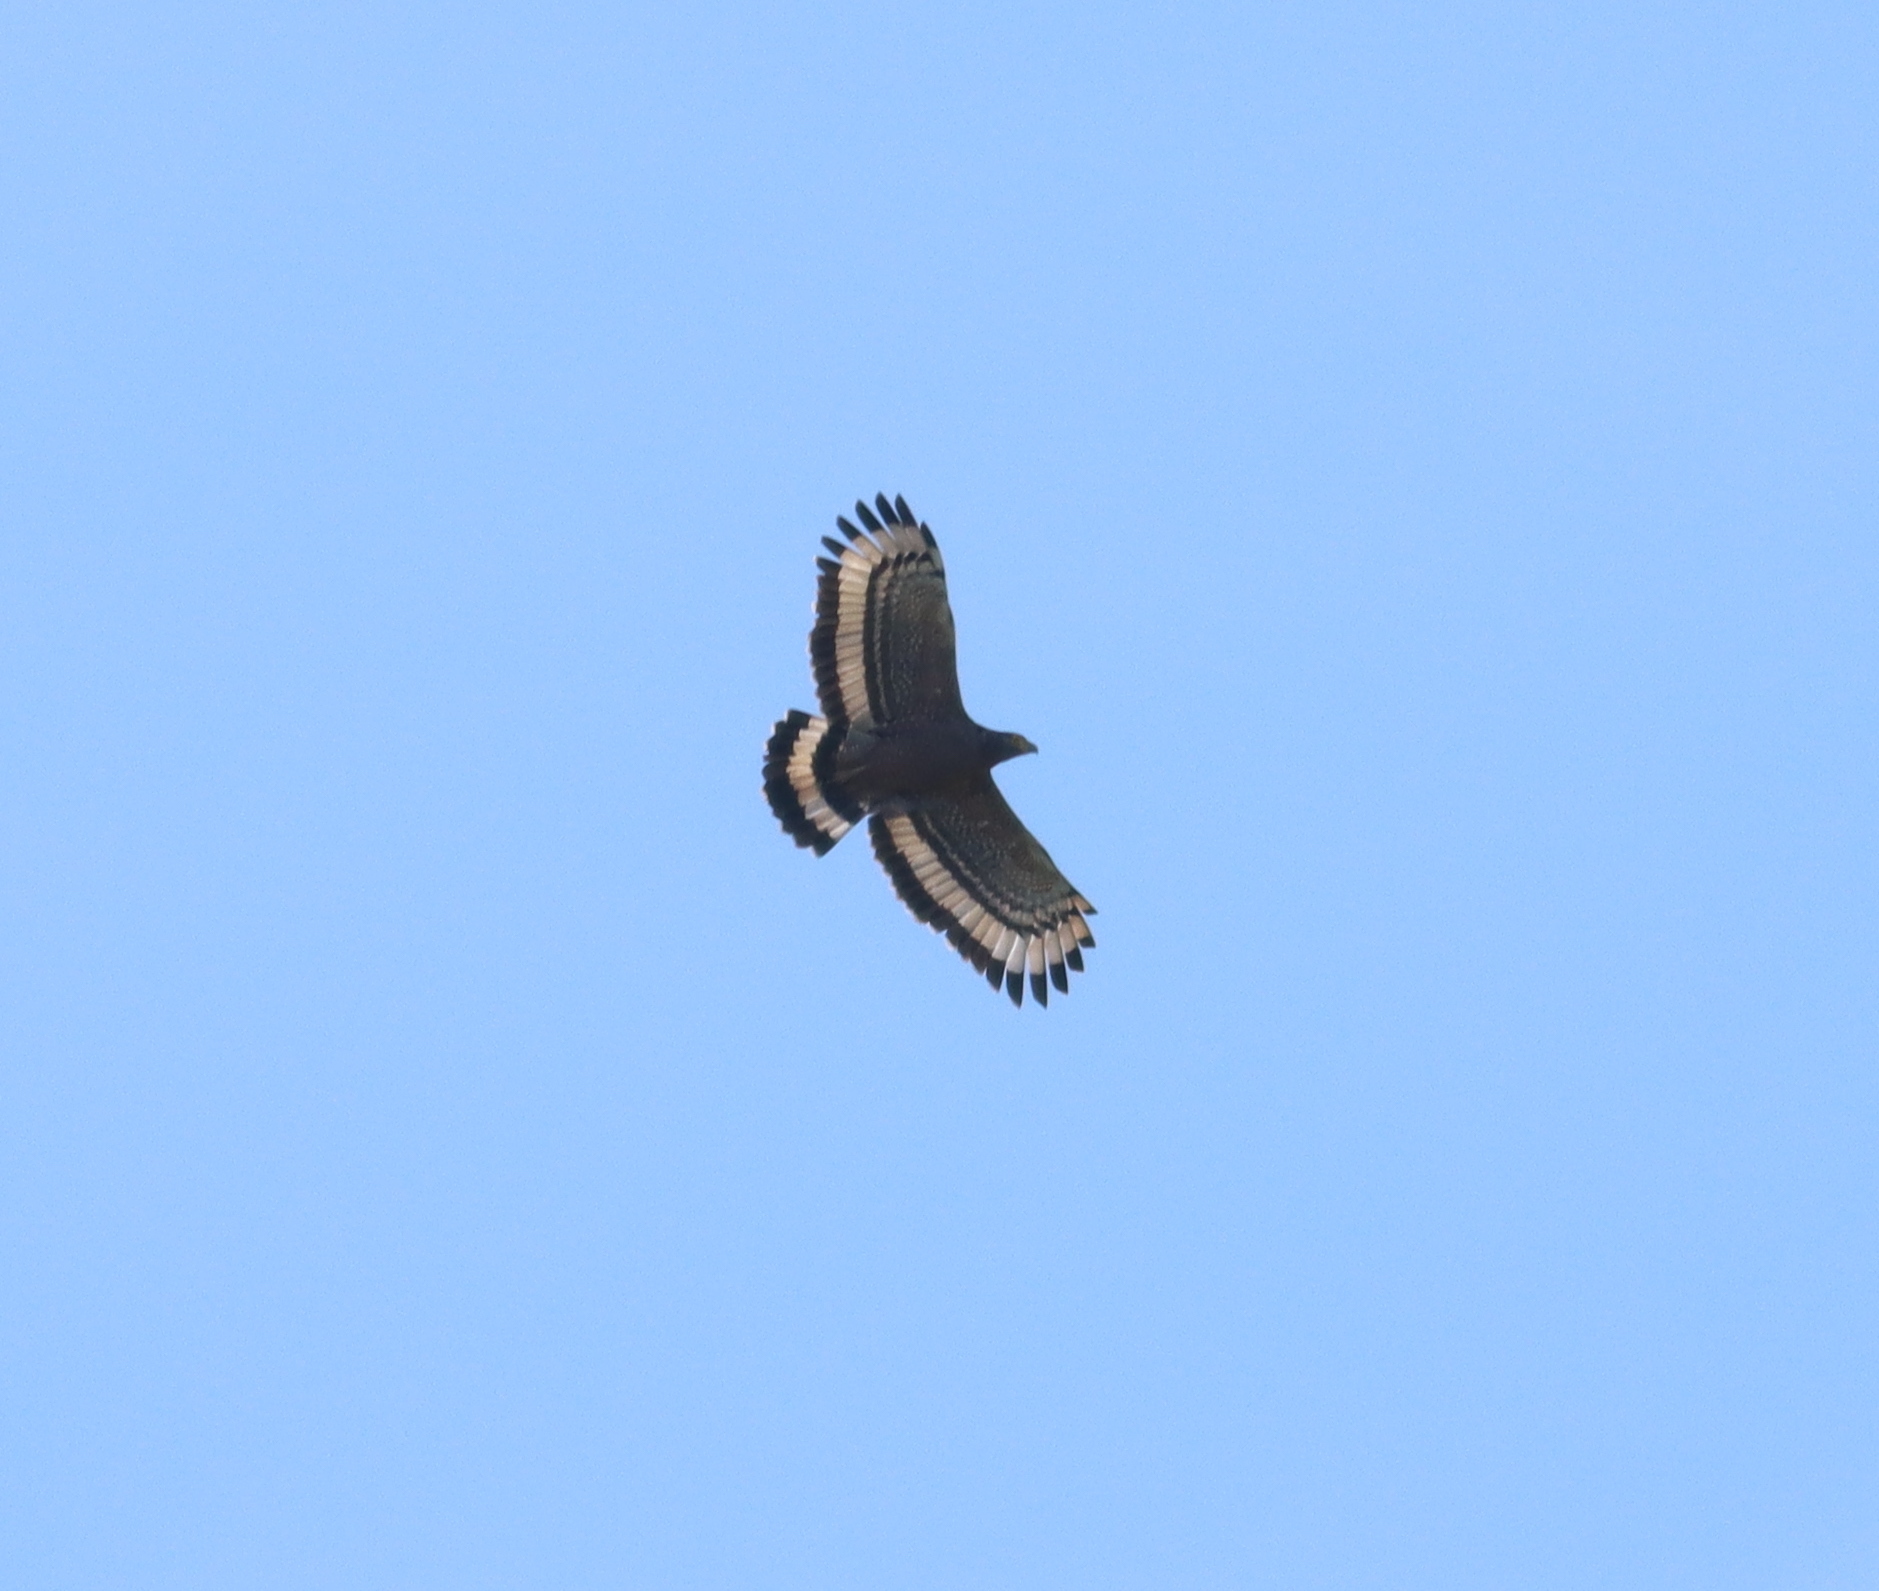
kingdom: Animalia
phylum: Chordata
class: Aves
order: Accipitriformes
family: Accipitridae
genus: Spilornis
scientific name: Spilornis cheela
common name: Crested serpent eagle
